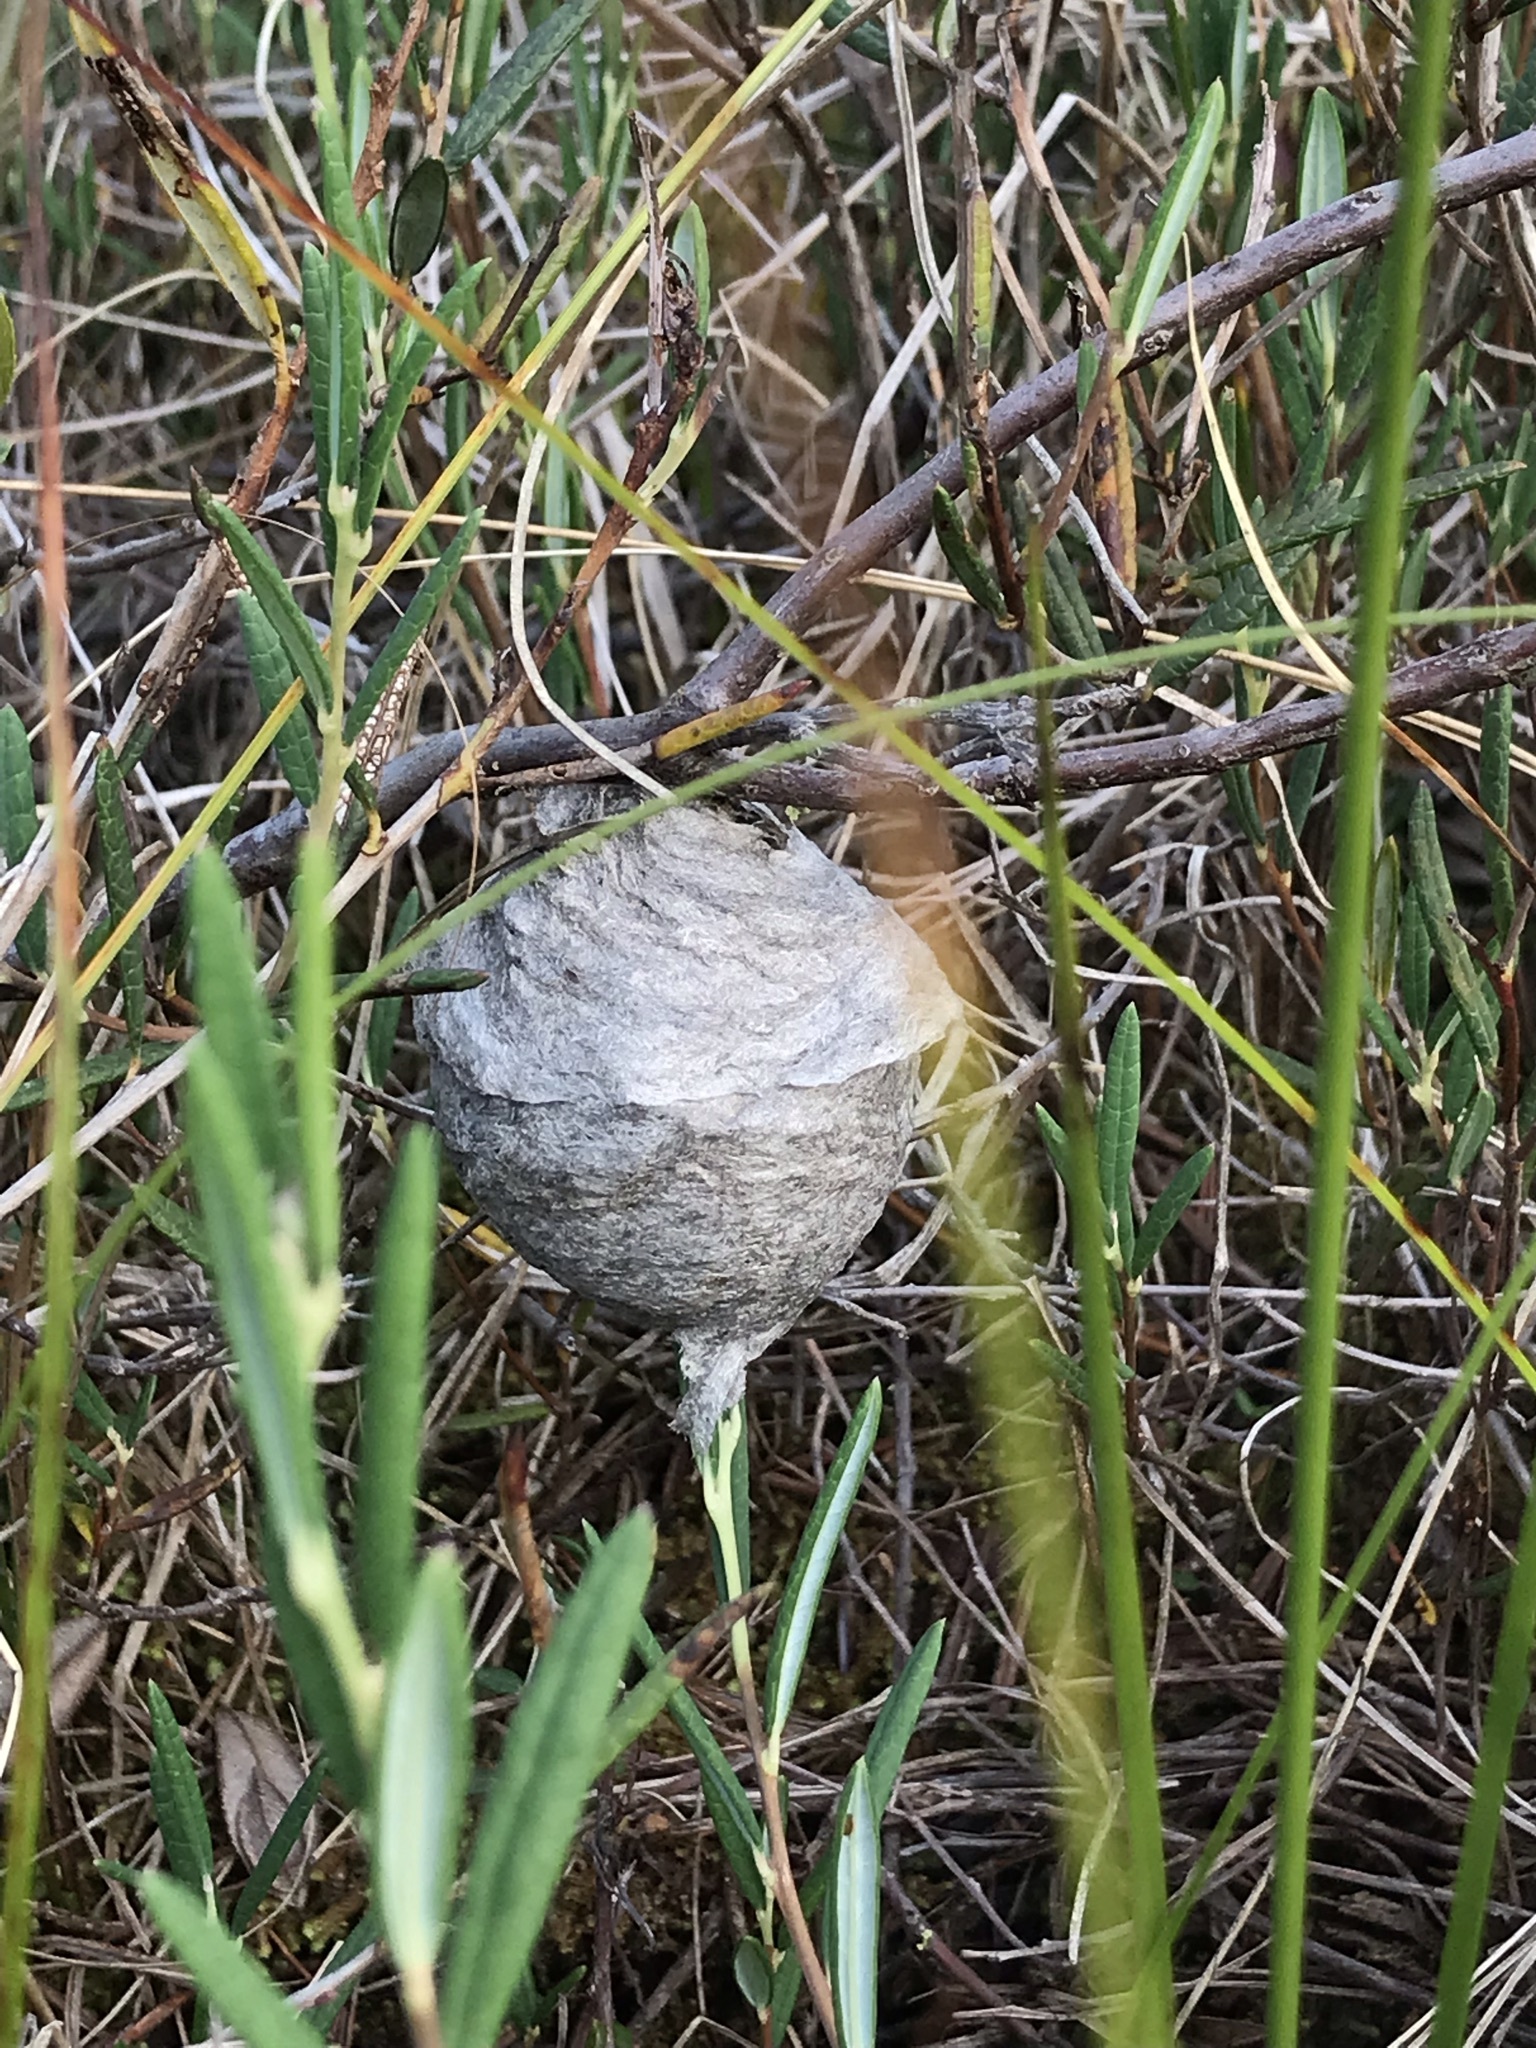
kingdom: Animalia
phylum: Arthropoda
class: Insecta
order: Hymenoptera
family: Vespidae
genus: Dolichovespula
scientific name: Dolichovespula
